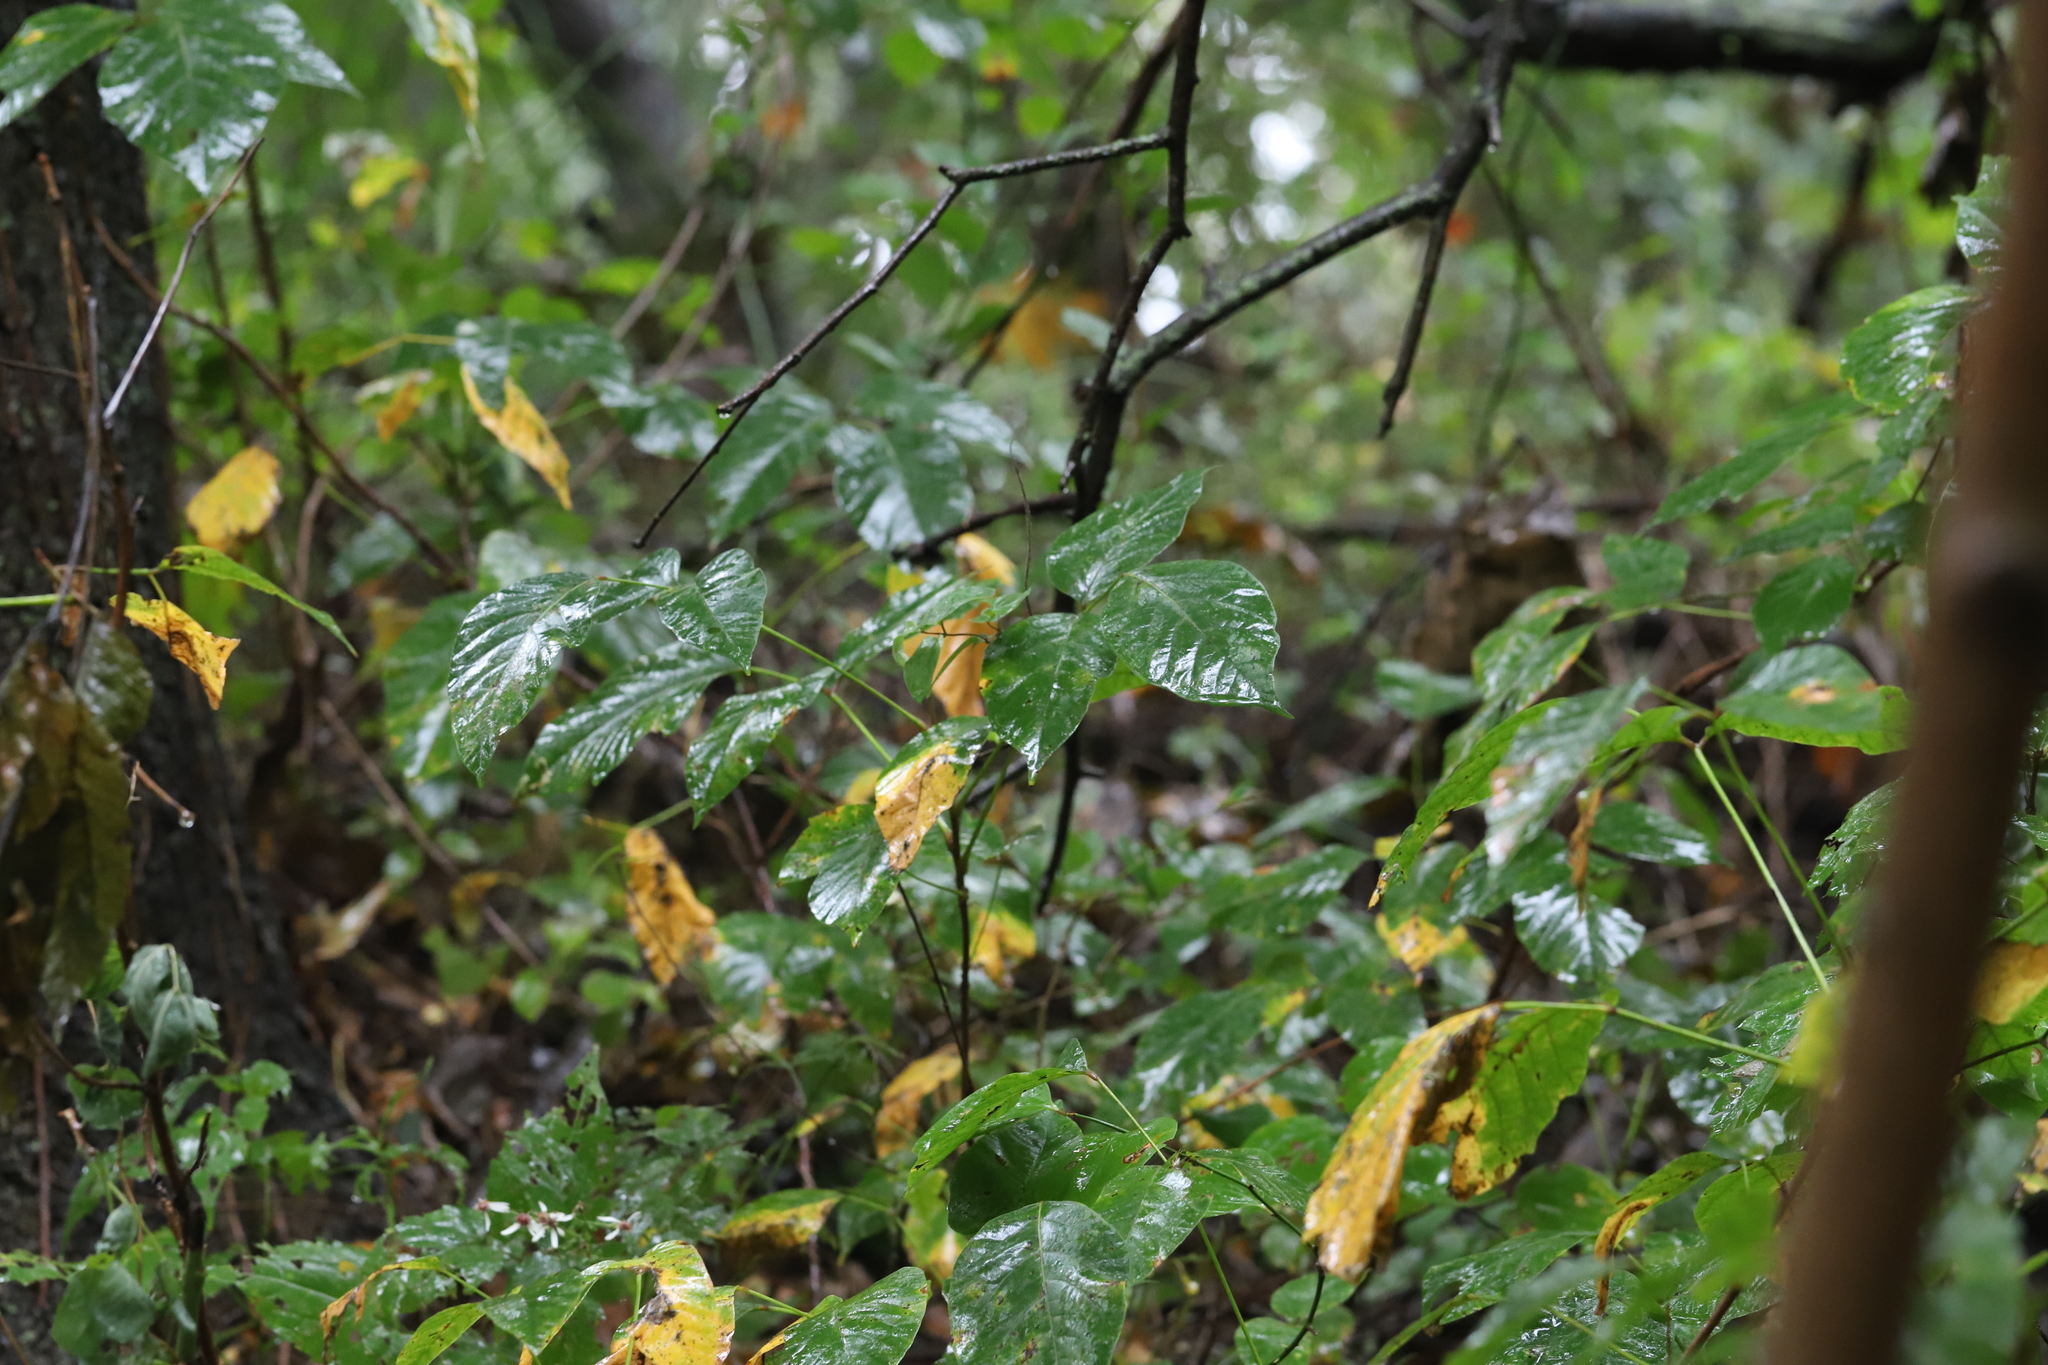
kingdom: Plantae
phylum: Tracheophyta
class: Magnoliopsida
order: Sapindales
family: Anacardiaceae
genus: Toxicodendron
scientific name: Toxicodendron radicans
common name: Poison ivy
